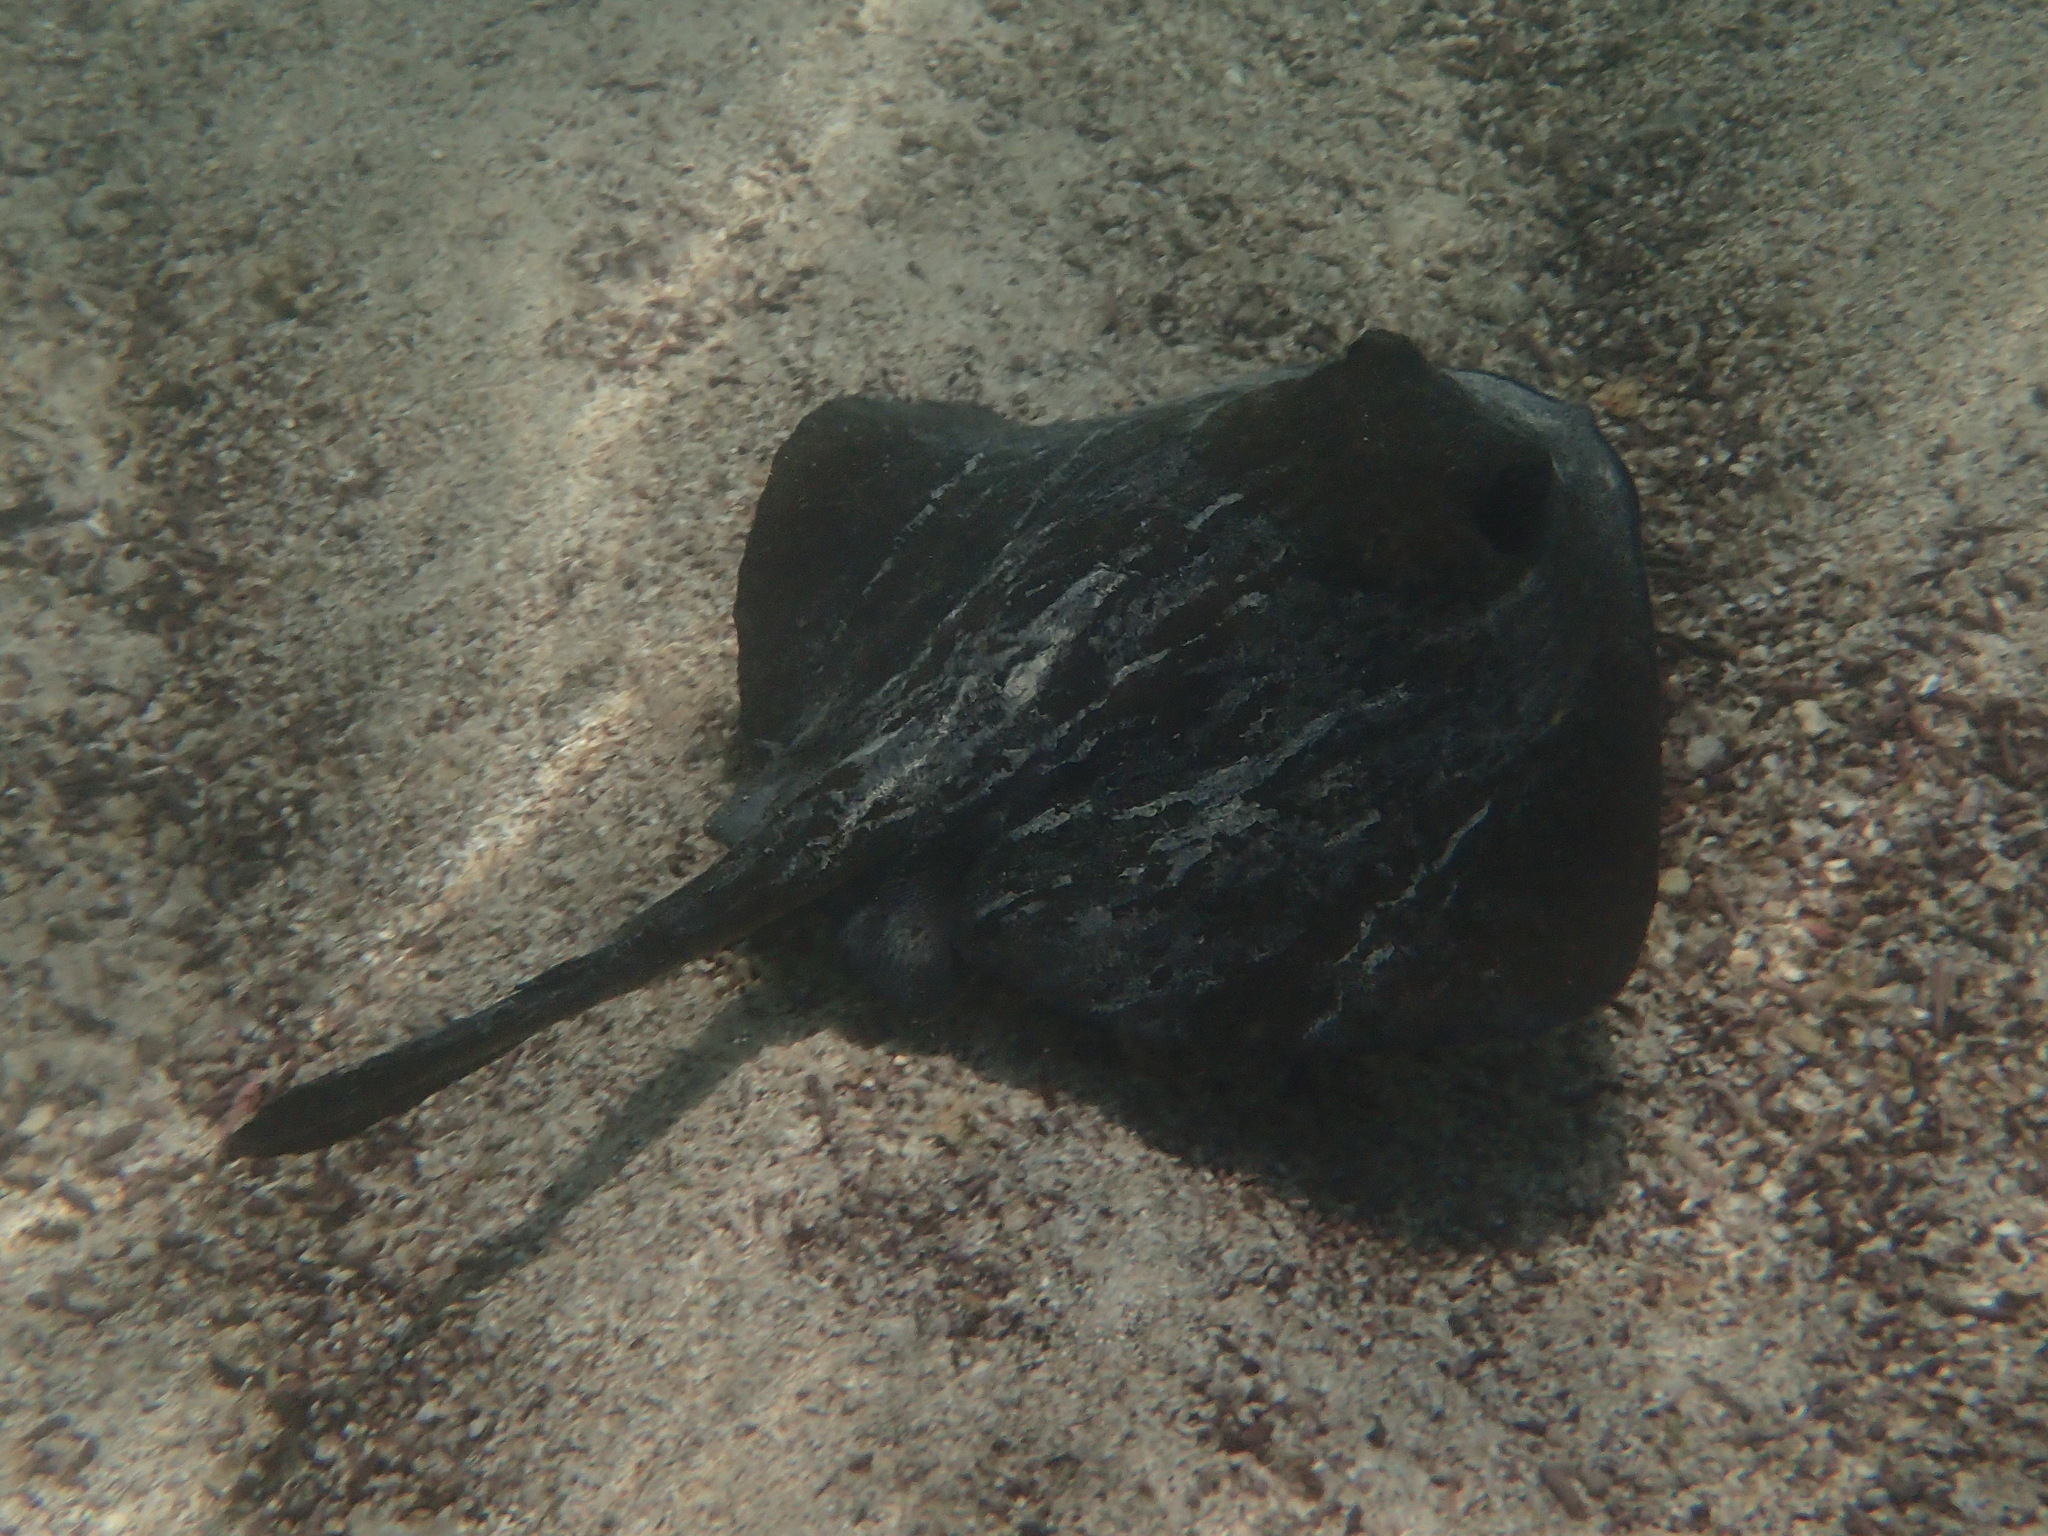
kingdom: Animalia
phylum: Chordata
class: Elasmobranchii
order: Myliobatiformes
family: Dasyatidae
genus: Hypanus
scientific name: Hypanus dipterurus
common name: Diamond stingray
